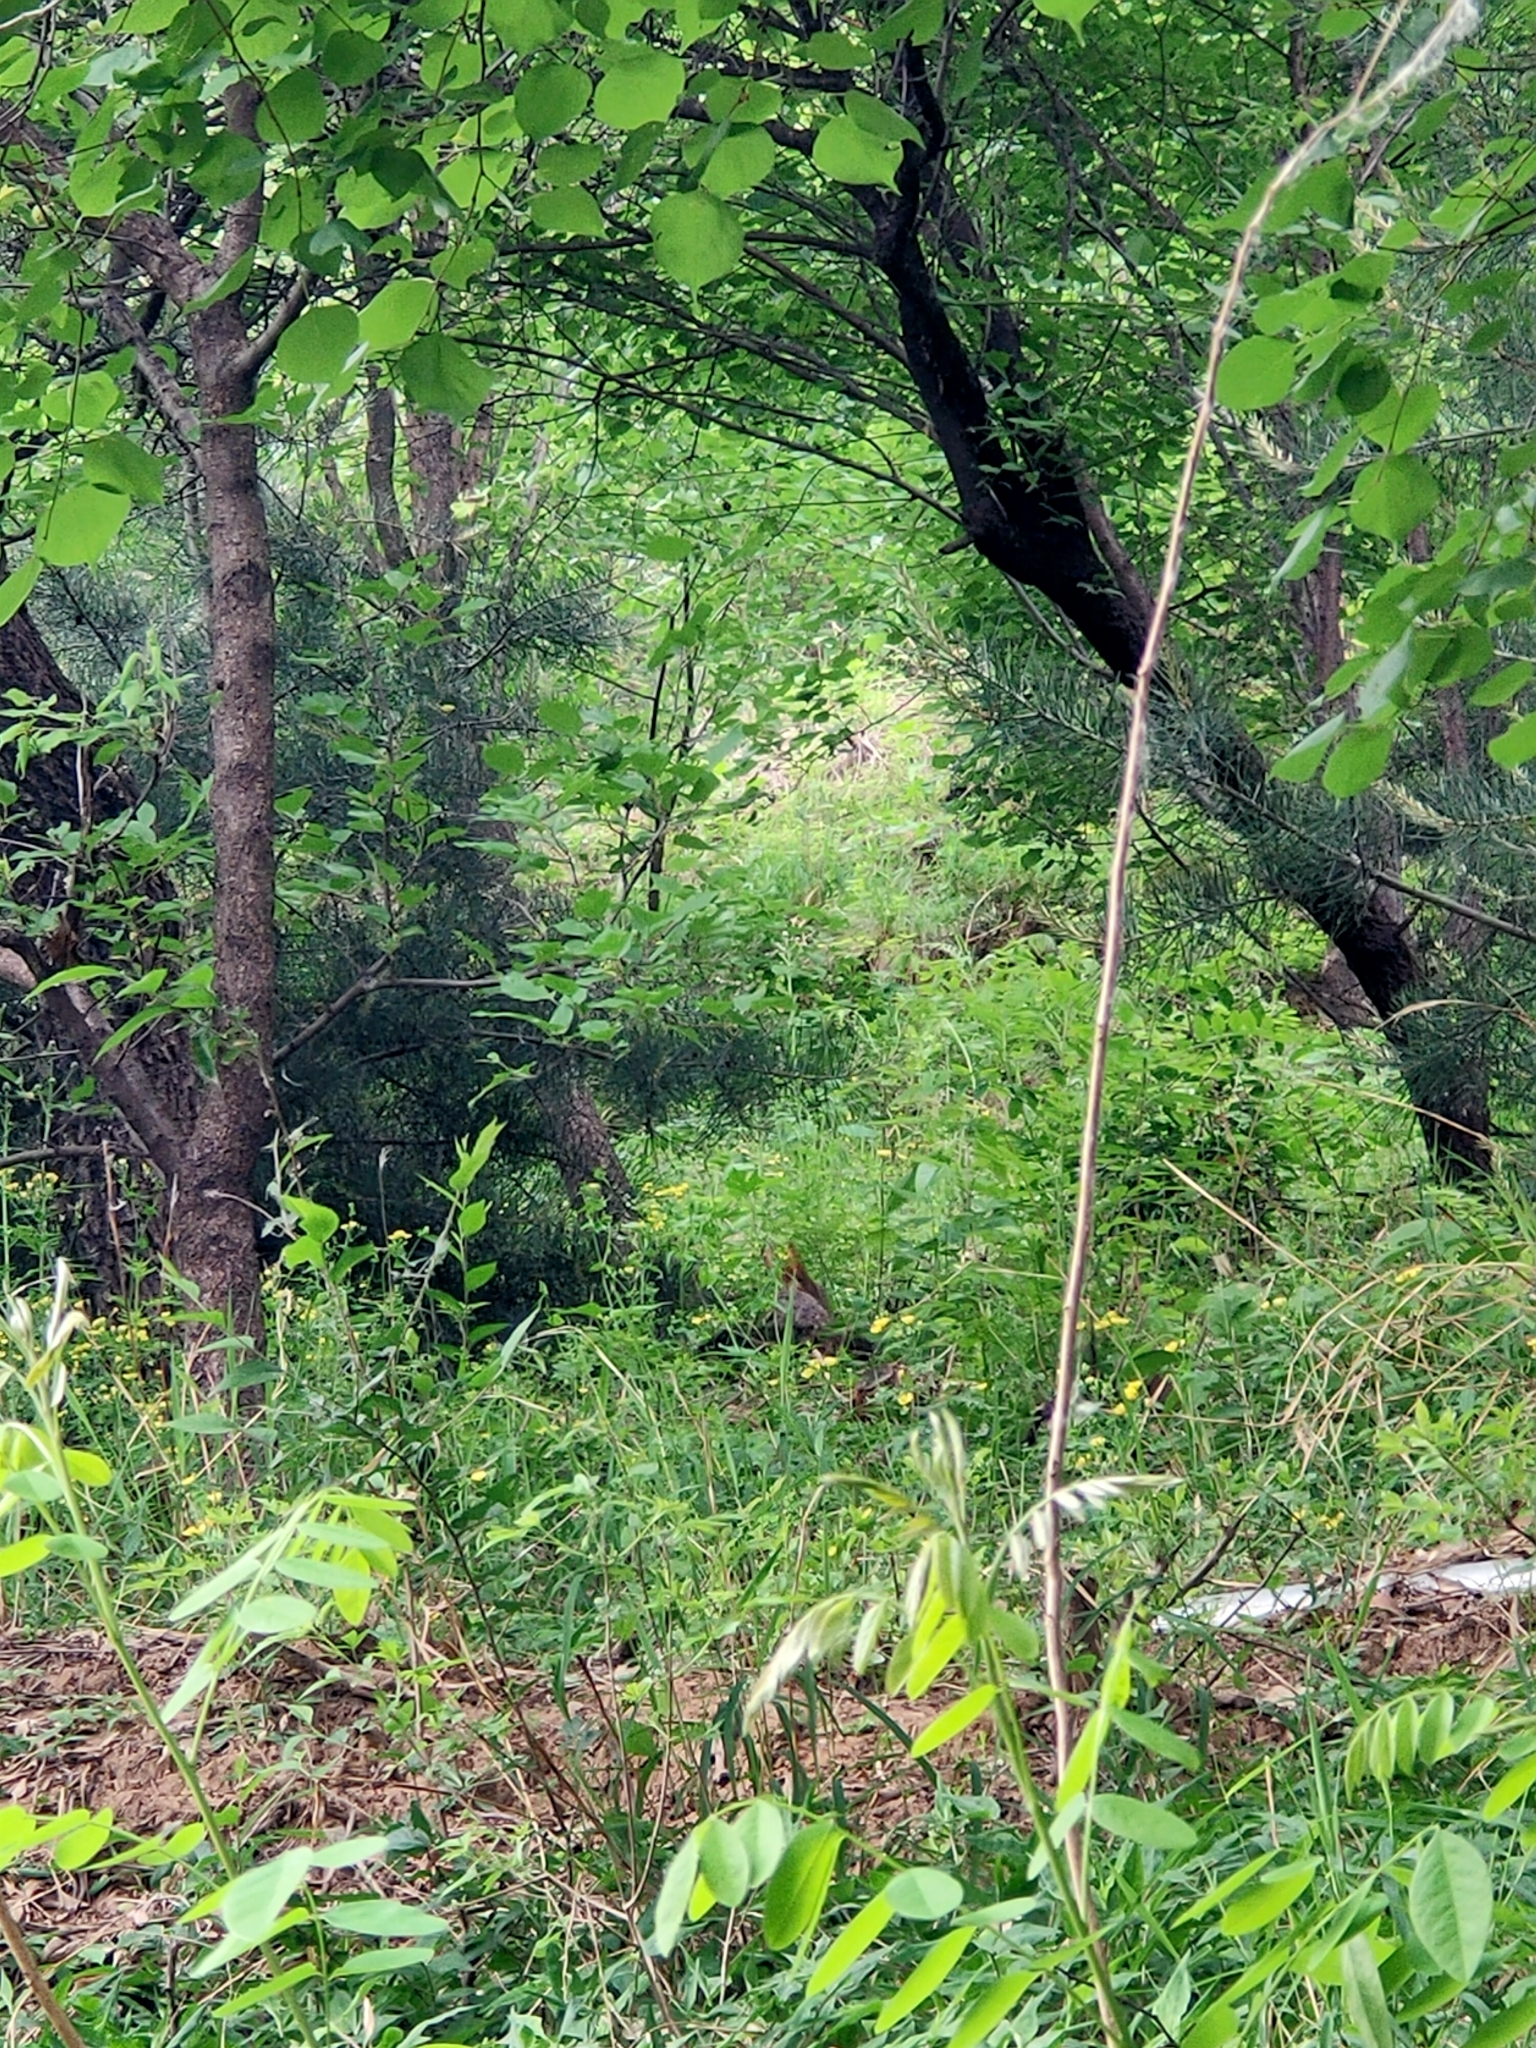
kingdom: Animalia
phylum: Chordata
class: Mammalia
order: Lagomorpha
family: Leporidae
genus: Lepus
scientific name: Lepus tolai
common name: Tolai hare
